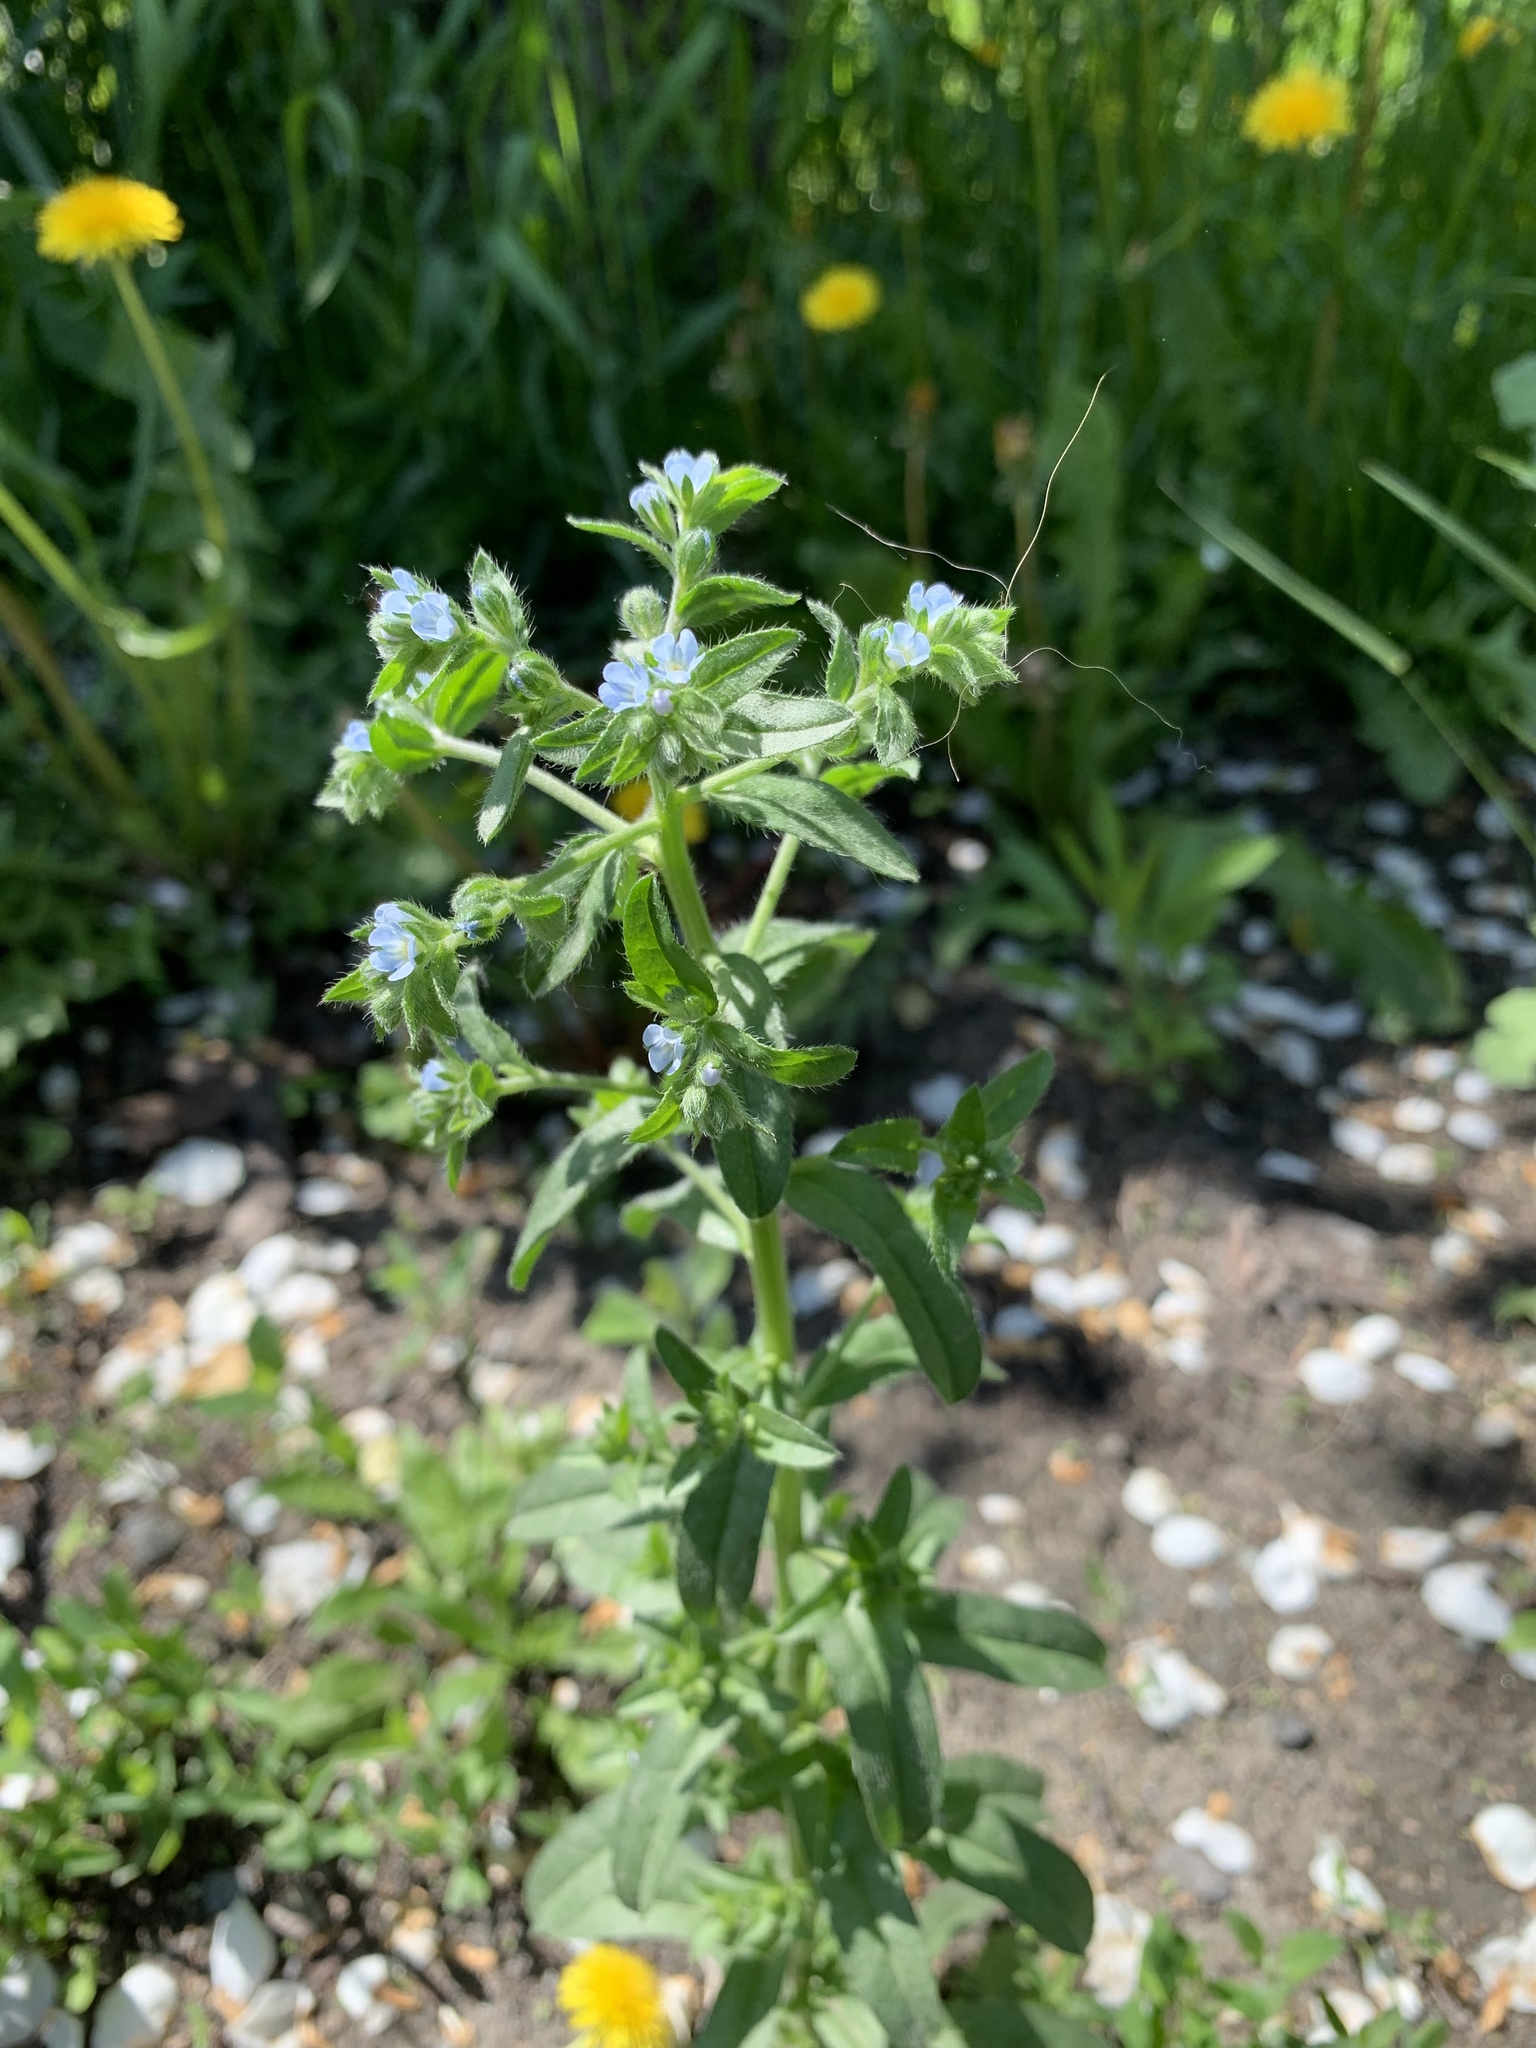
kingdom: Plantae
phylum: Tracheophyta
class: Magnoliopsida
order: Boraginales
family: Boraginaceae
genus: Lappula
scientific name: Lappula squarrosa
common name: European stickseed
